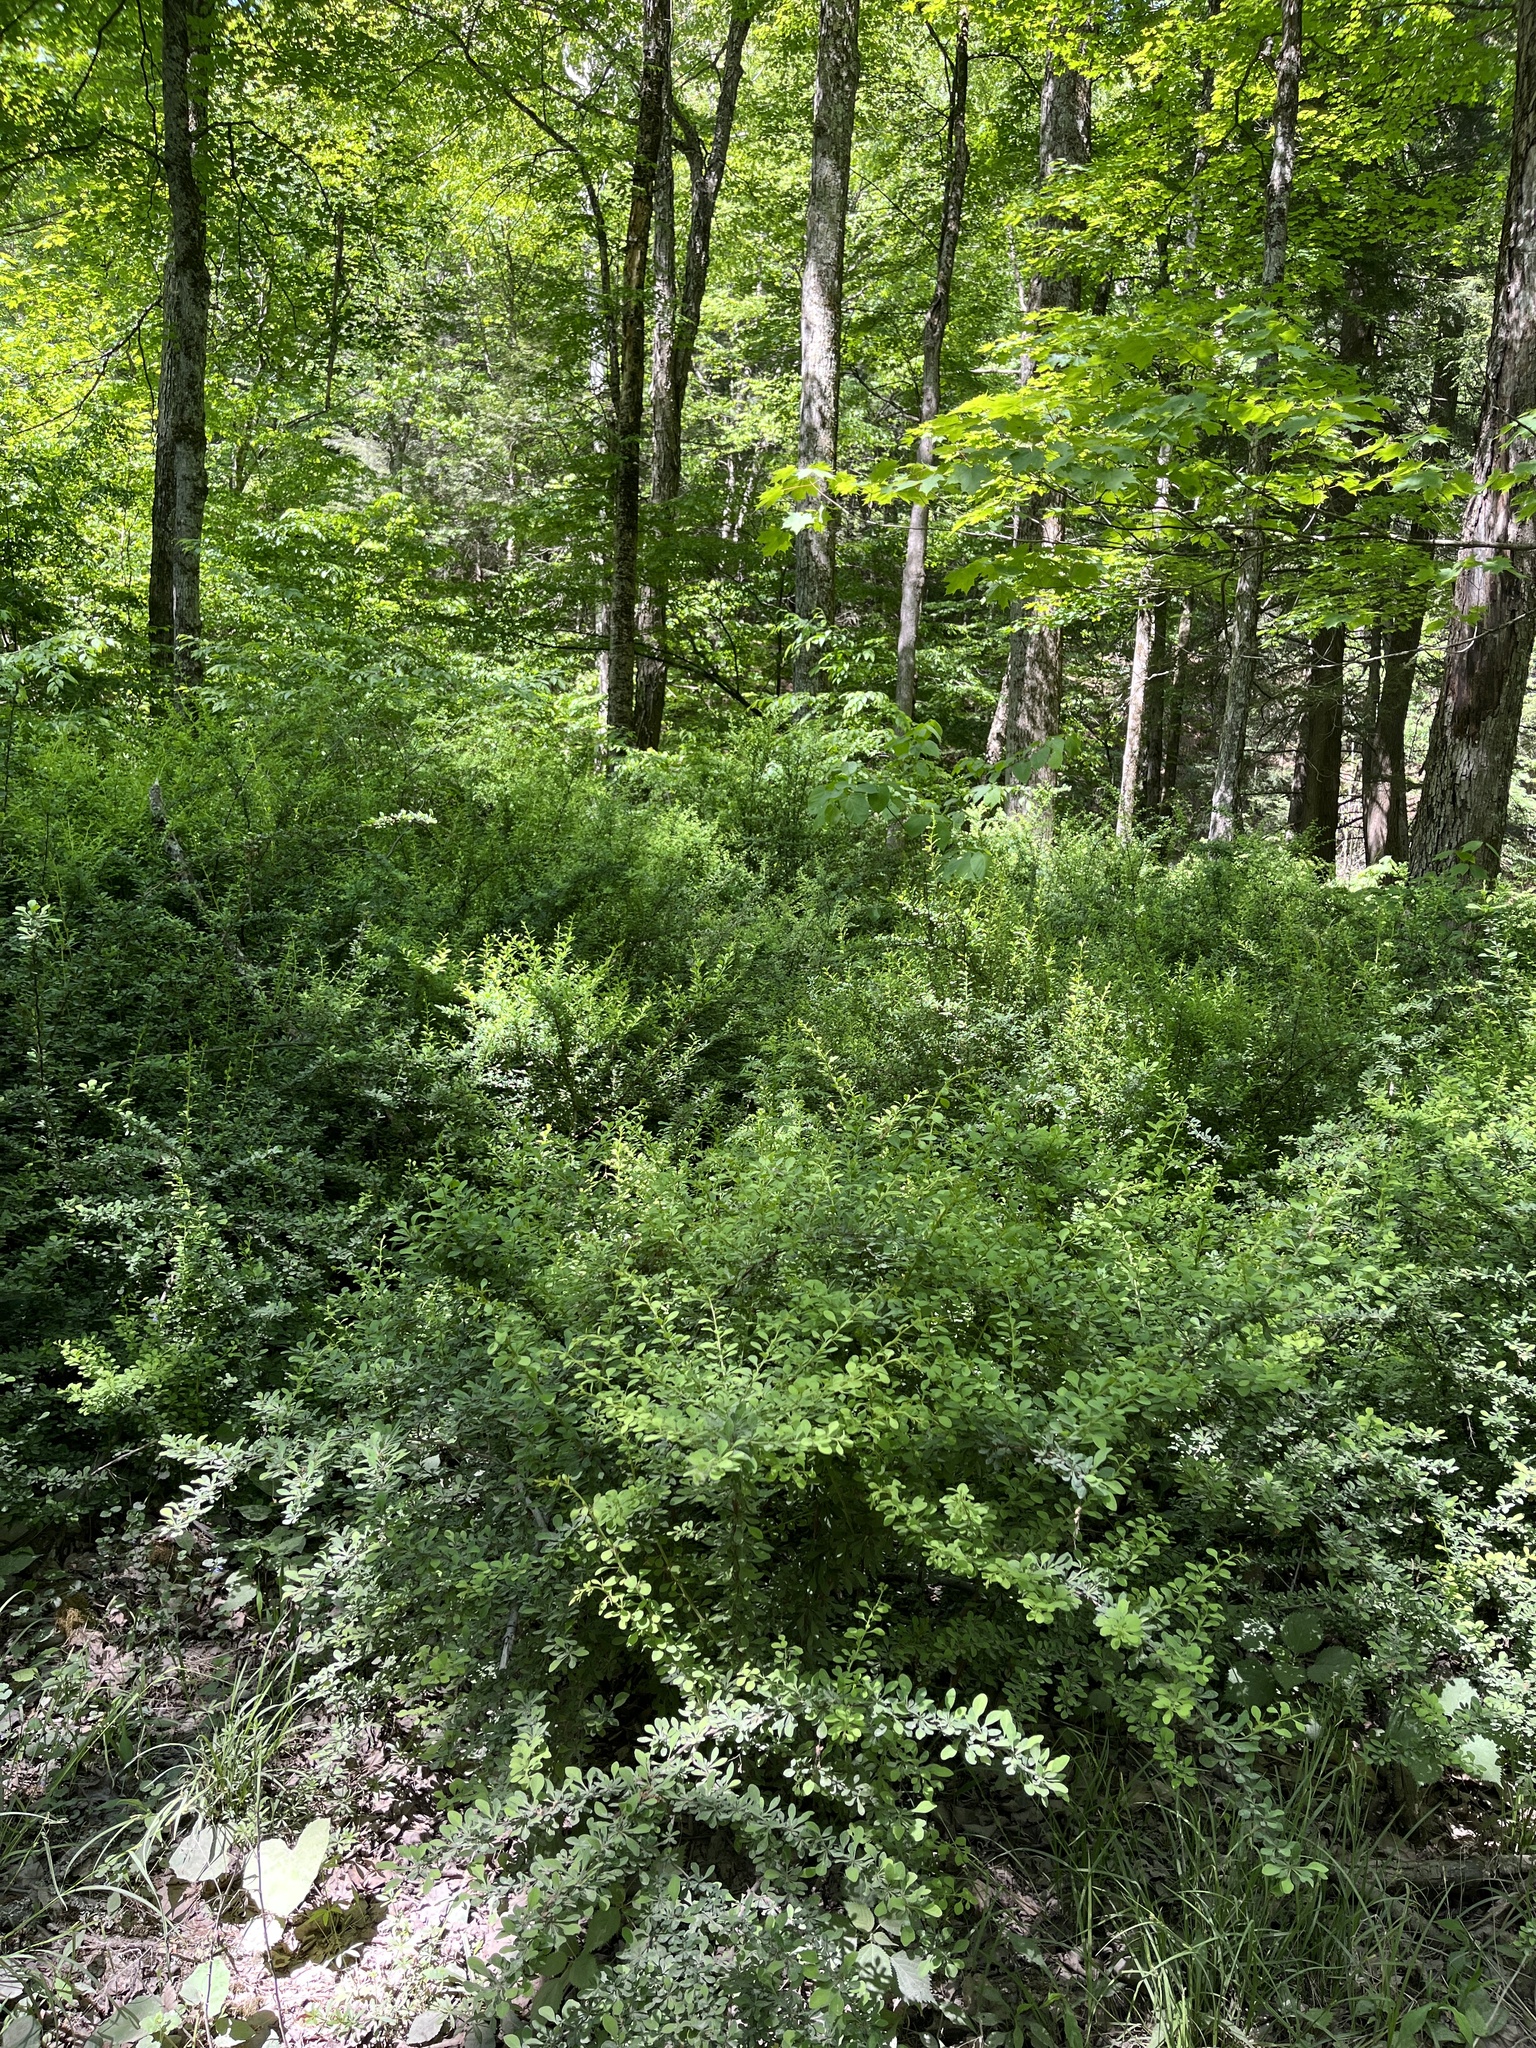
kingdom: Plantae
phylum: Tracheophyta
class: Magnoliopsida
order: Ranunculales
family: Berberidaceae
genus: Berberis
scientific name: Berberis thunbergii
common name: Japanese barberry
